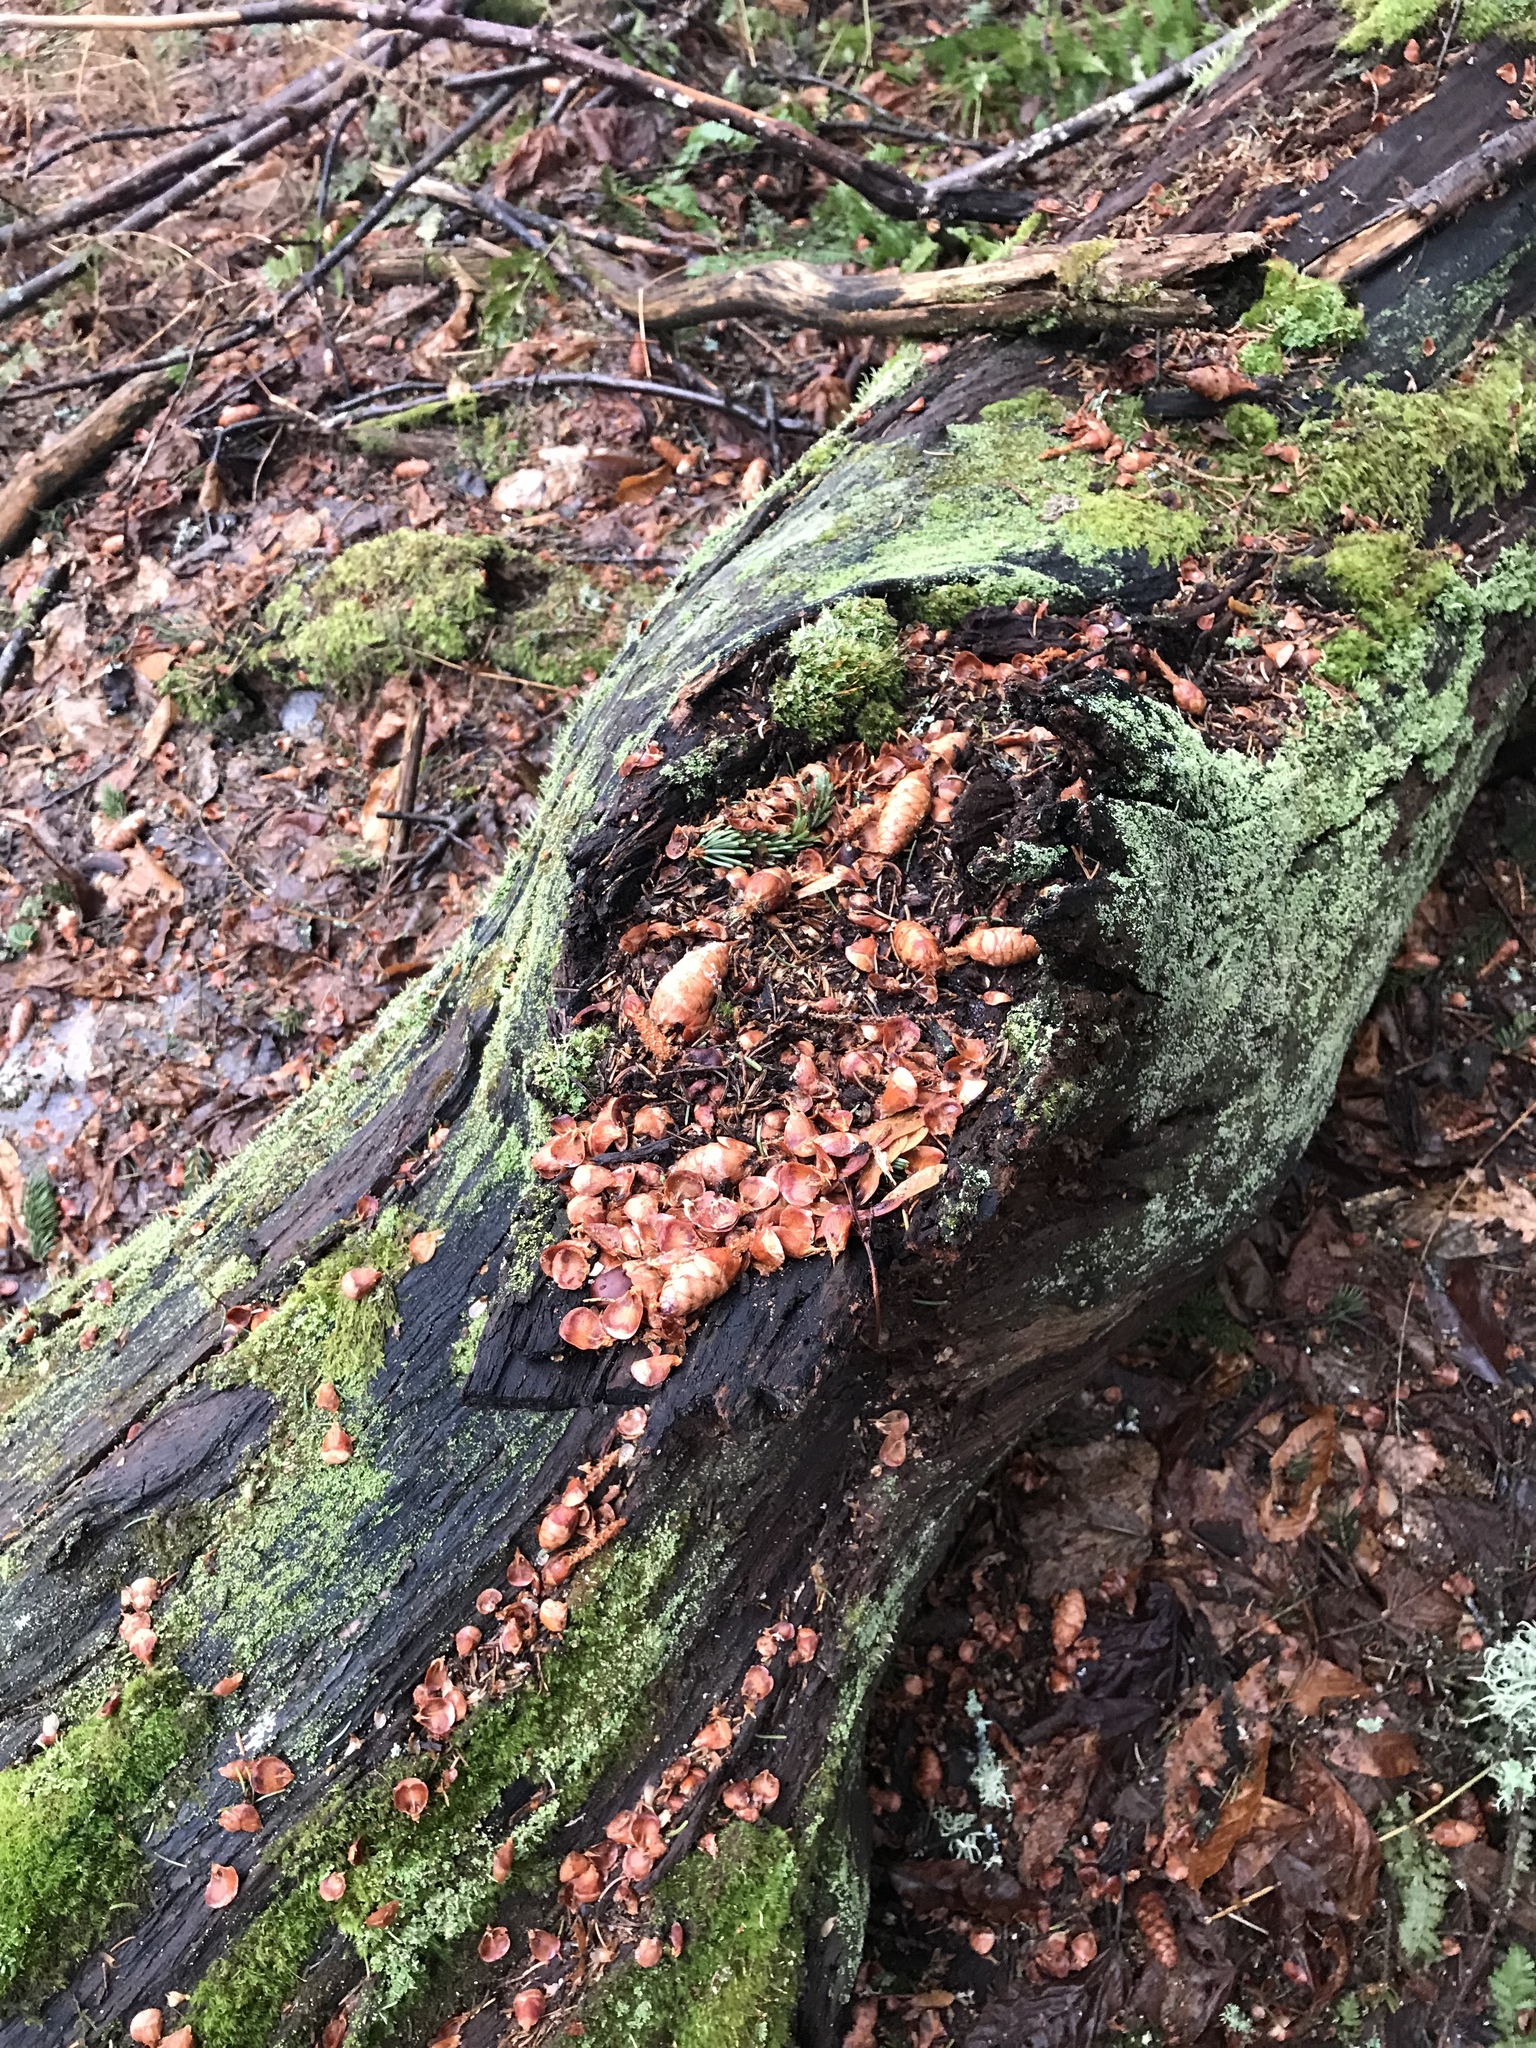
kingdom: Animalia
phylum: Chordata
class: Mammalia
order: Rodentia
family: Sciuridae
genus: Tamiasciurus
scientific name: Tamiasciurus hudsonicus
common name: Red squirrel
